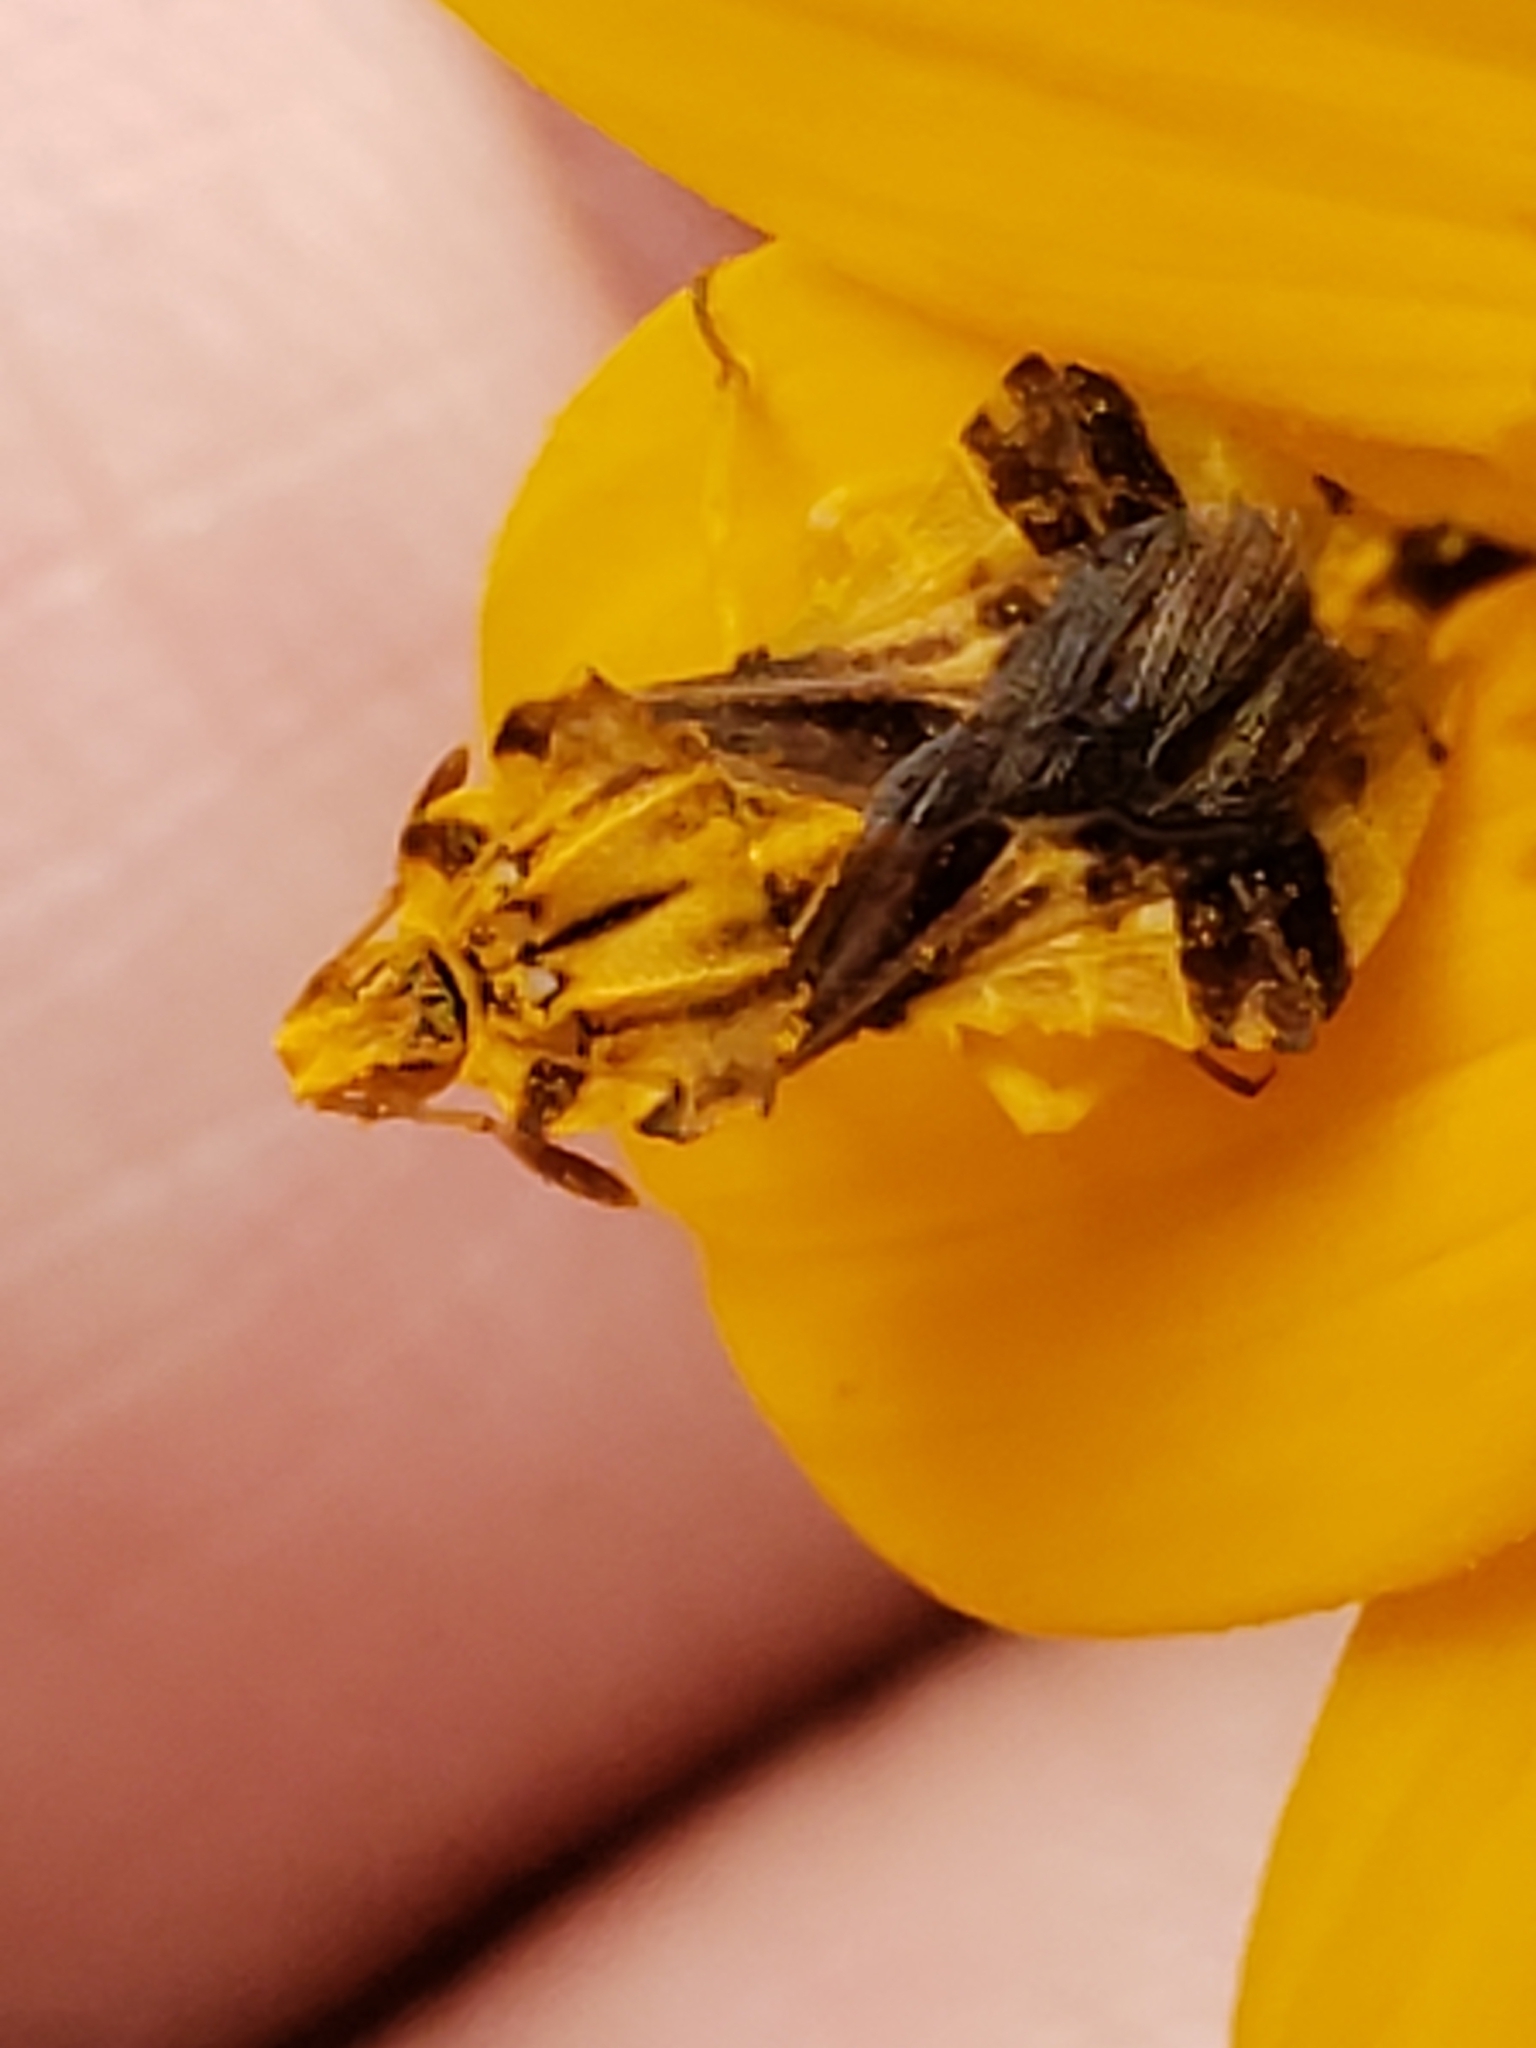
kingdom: Animalia
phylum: Arthropoda
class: Insecta
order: Hemiptera
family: Reduviidae
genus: Phymata
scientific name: Phymata fasciata
